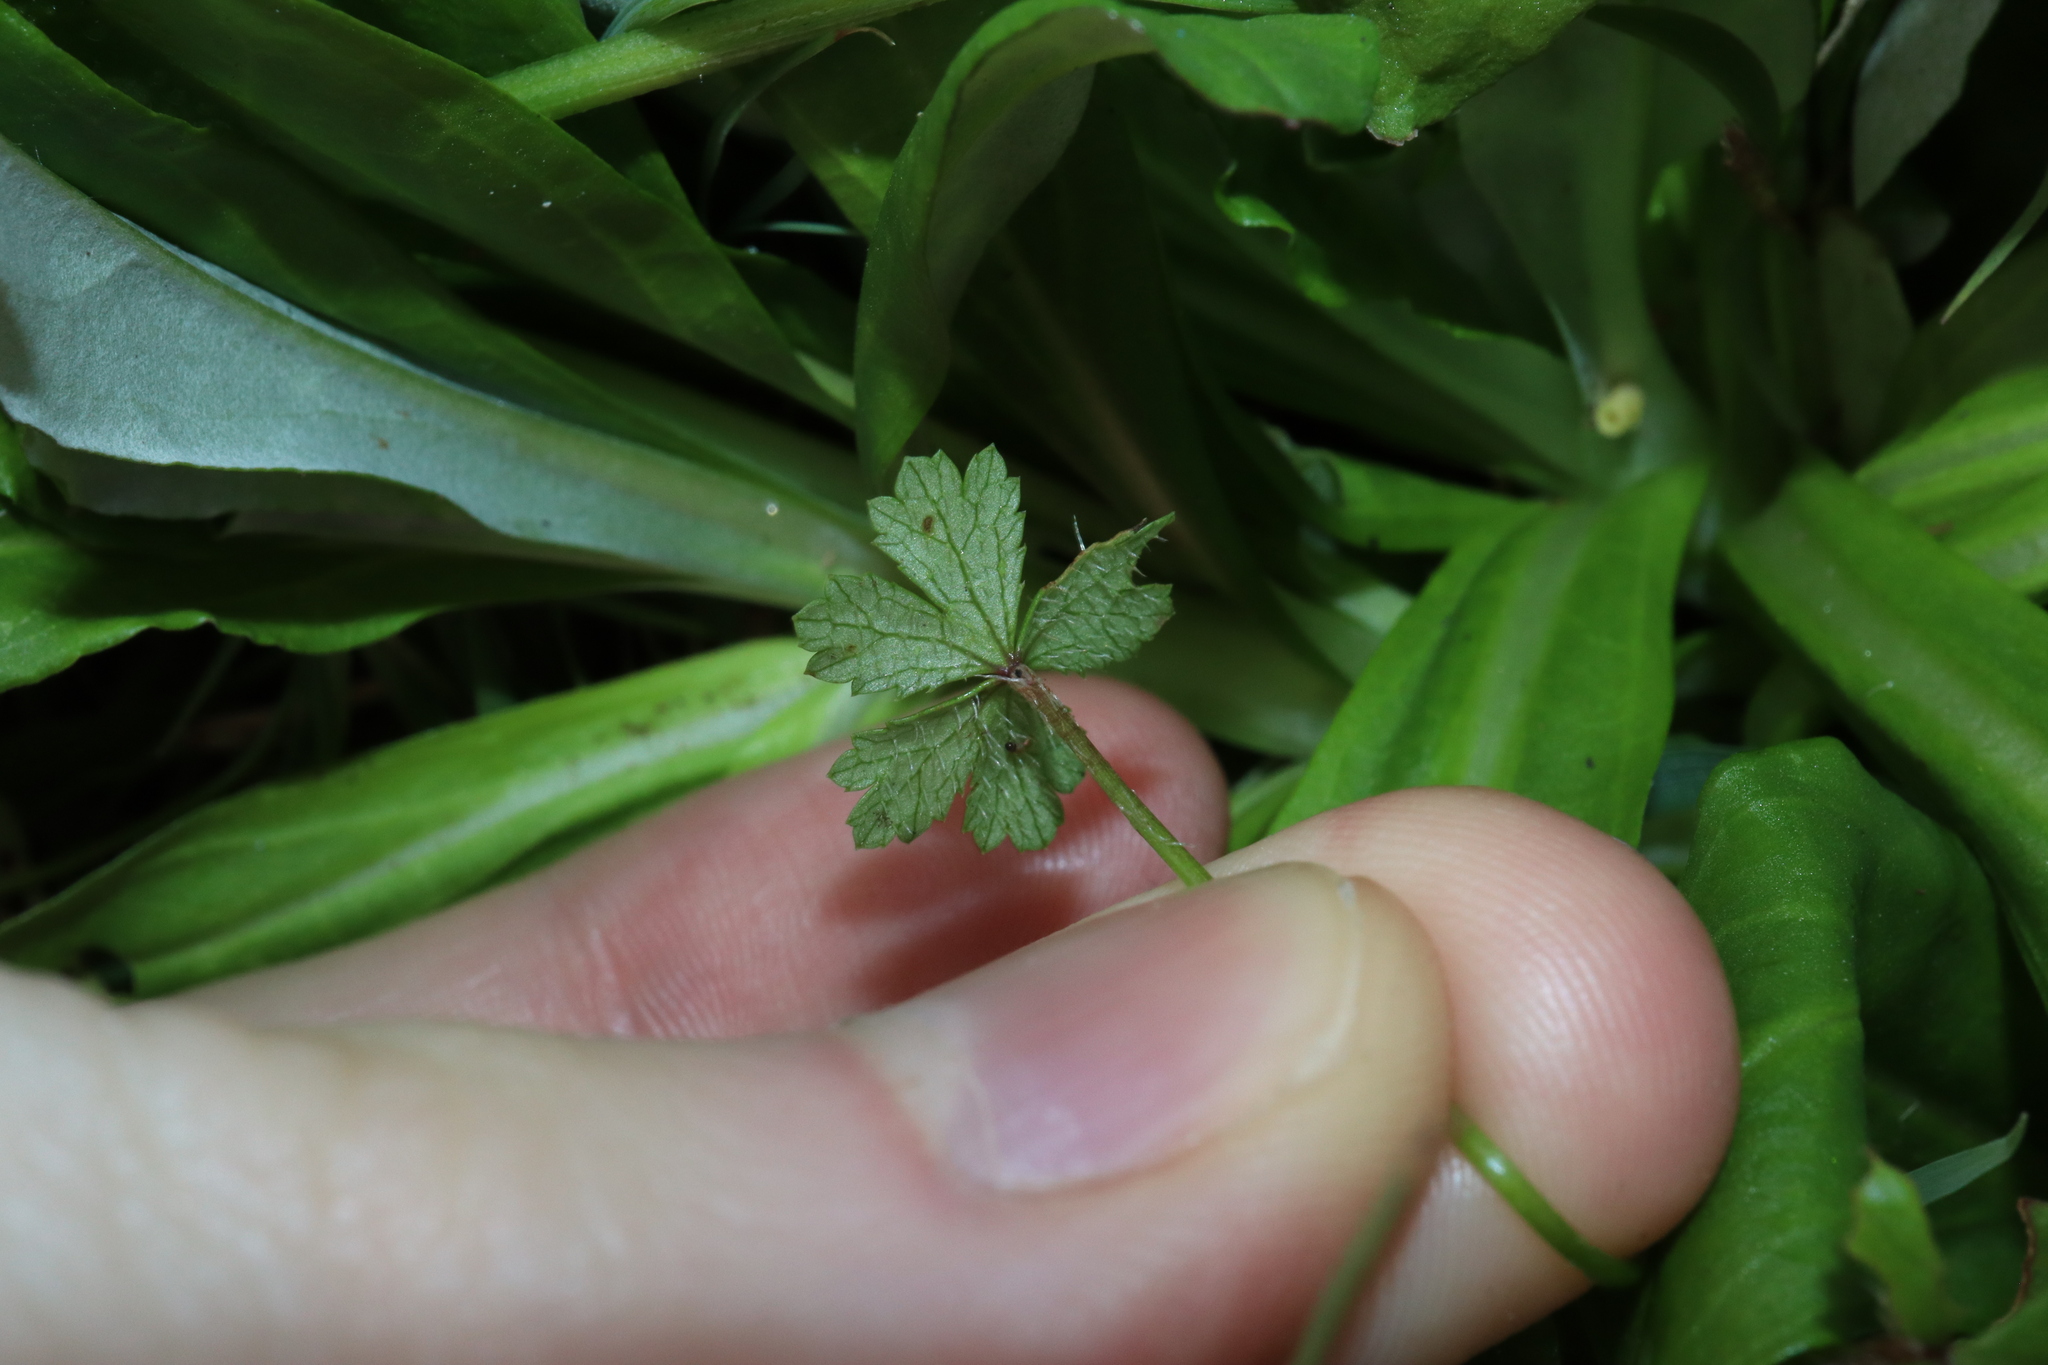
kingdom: Plantae
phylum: Tracheophyta
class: Magnoliopsida
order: Apiales
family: Araliaceae
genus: Hydrocotyle
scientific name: Hydrocotyle tripartita
